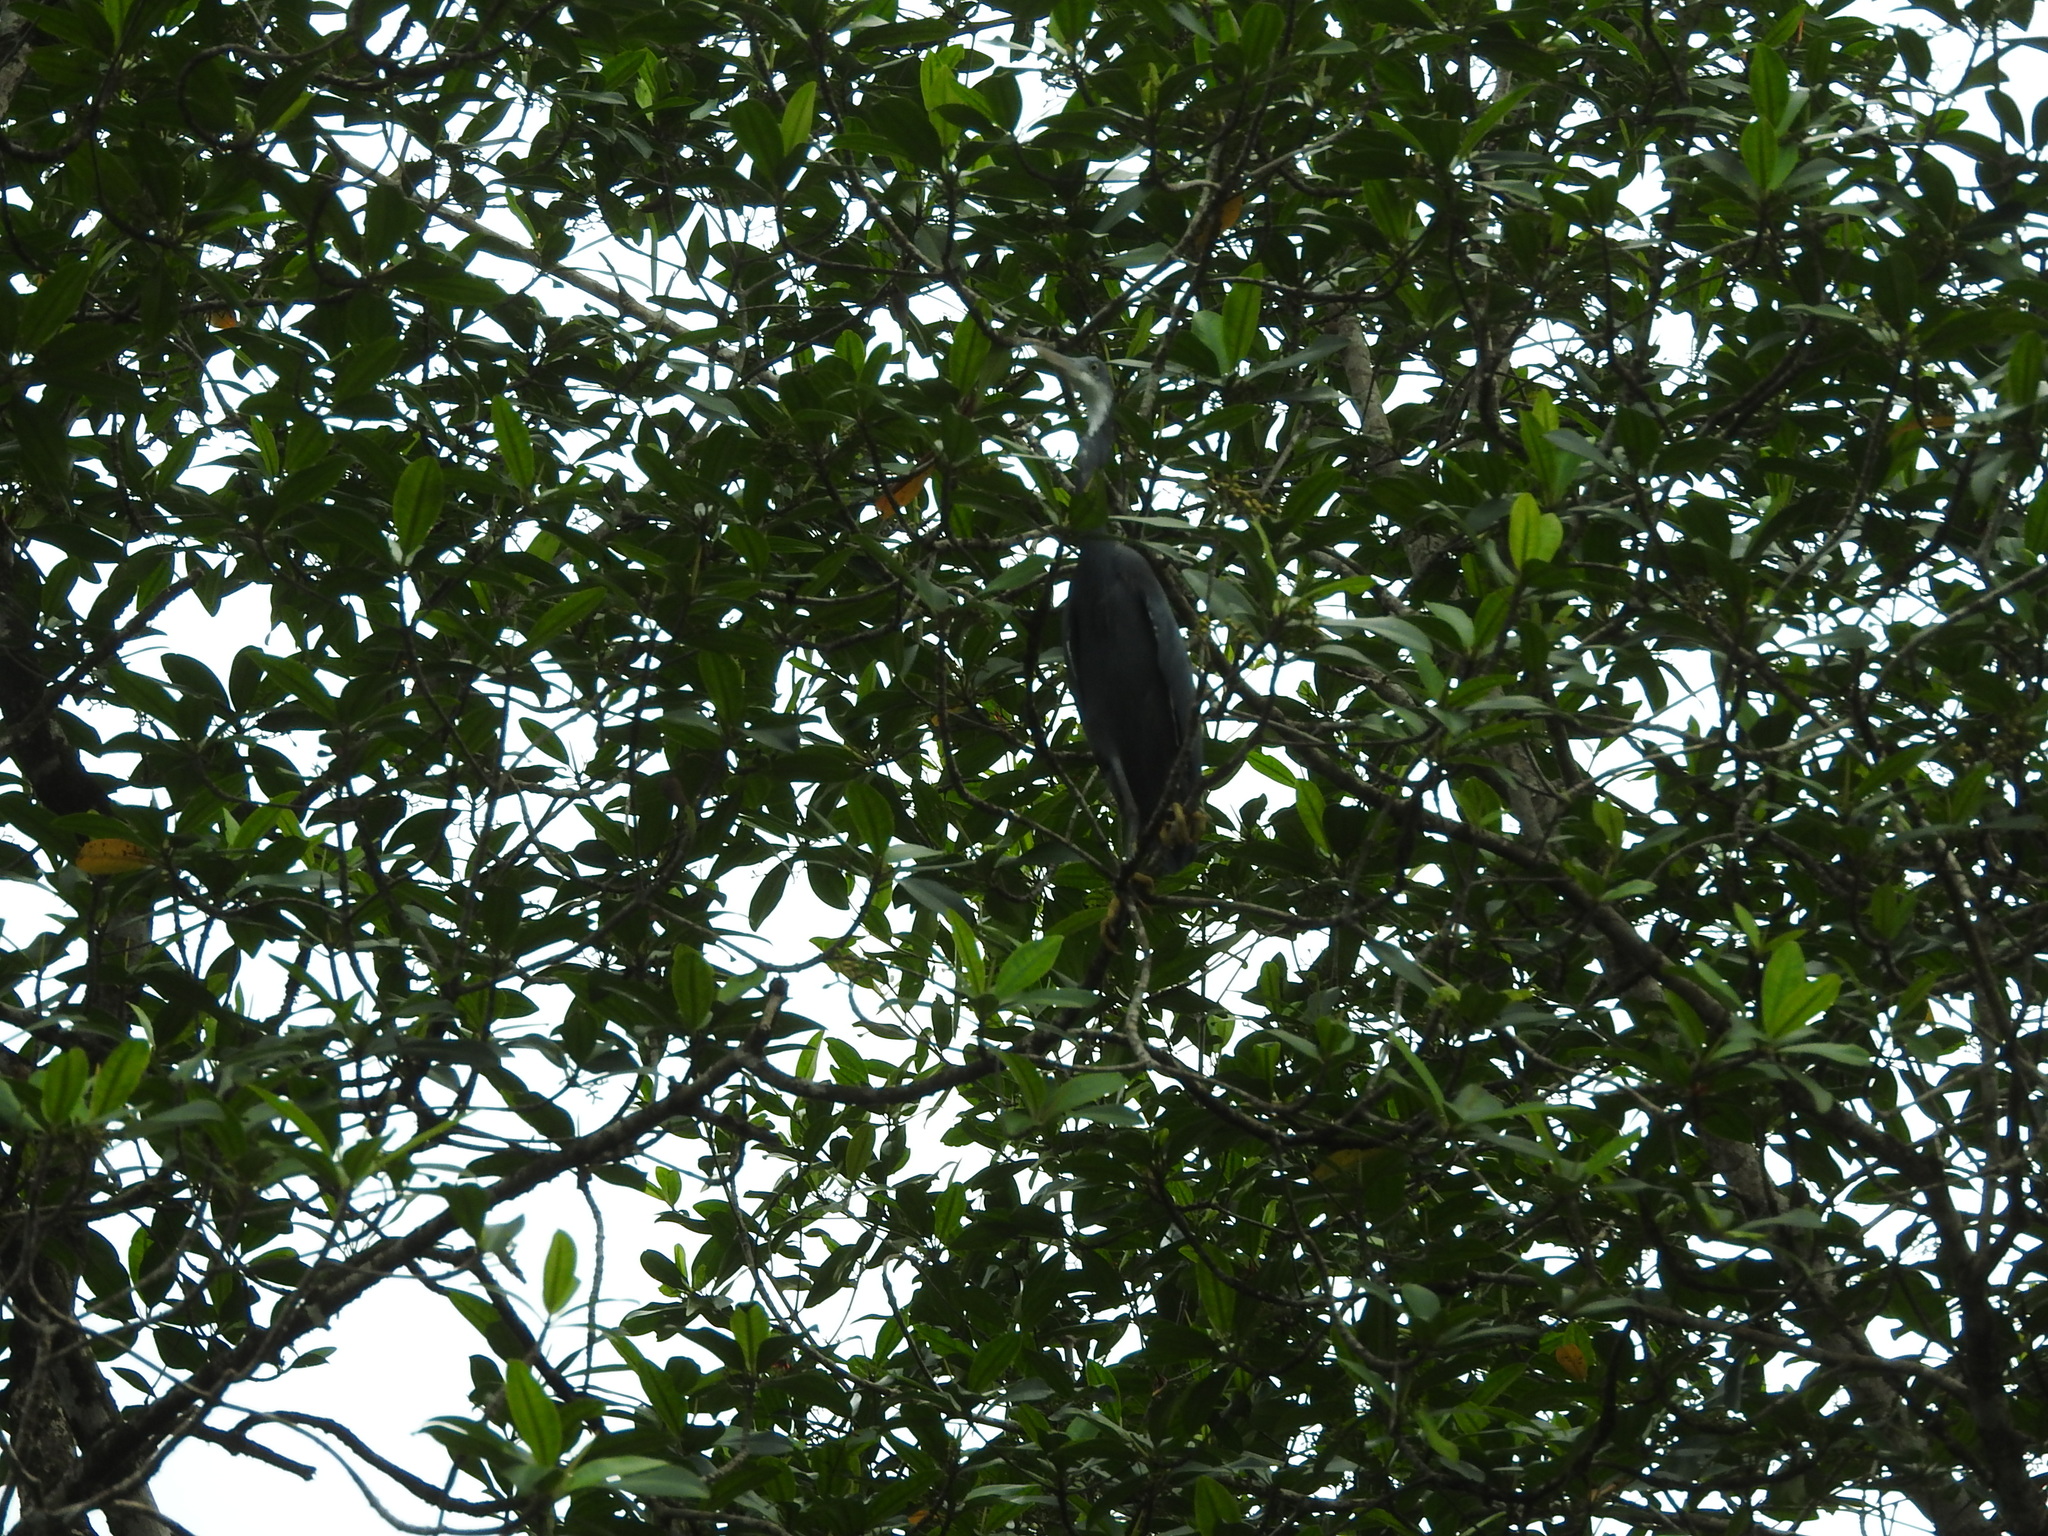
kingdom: Animalia
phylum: Chordata
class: Aves
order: Pelecaniformes
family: Ardeidae
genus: Egretta
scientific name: Egretta gularis
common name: Western reef-heron
